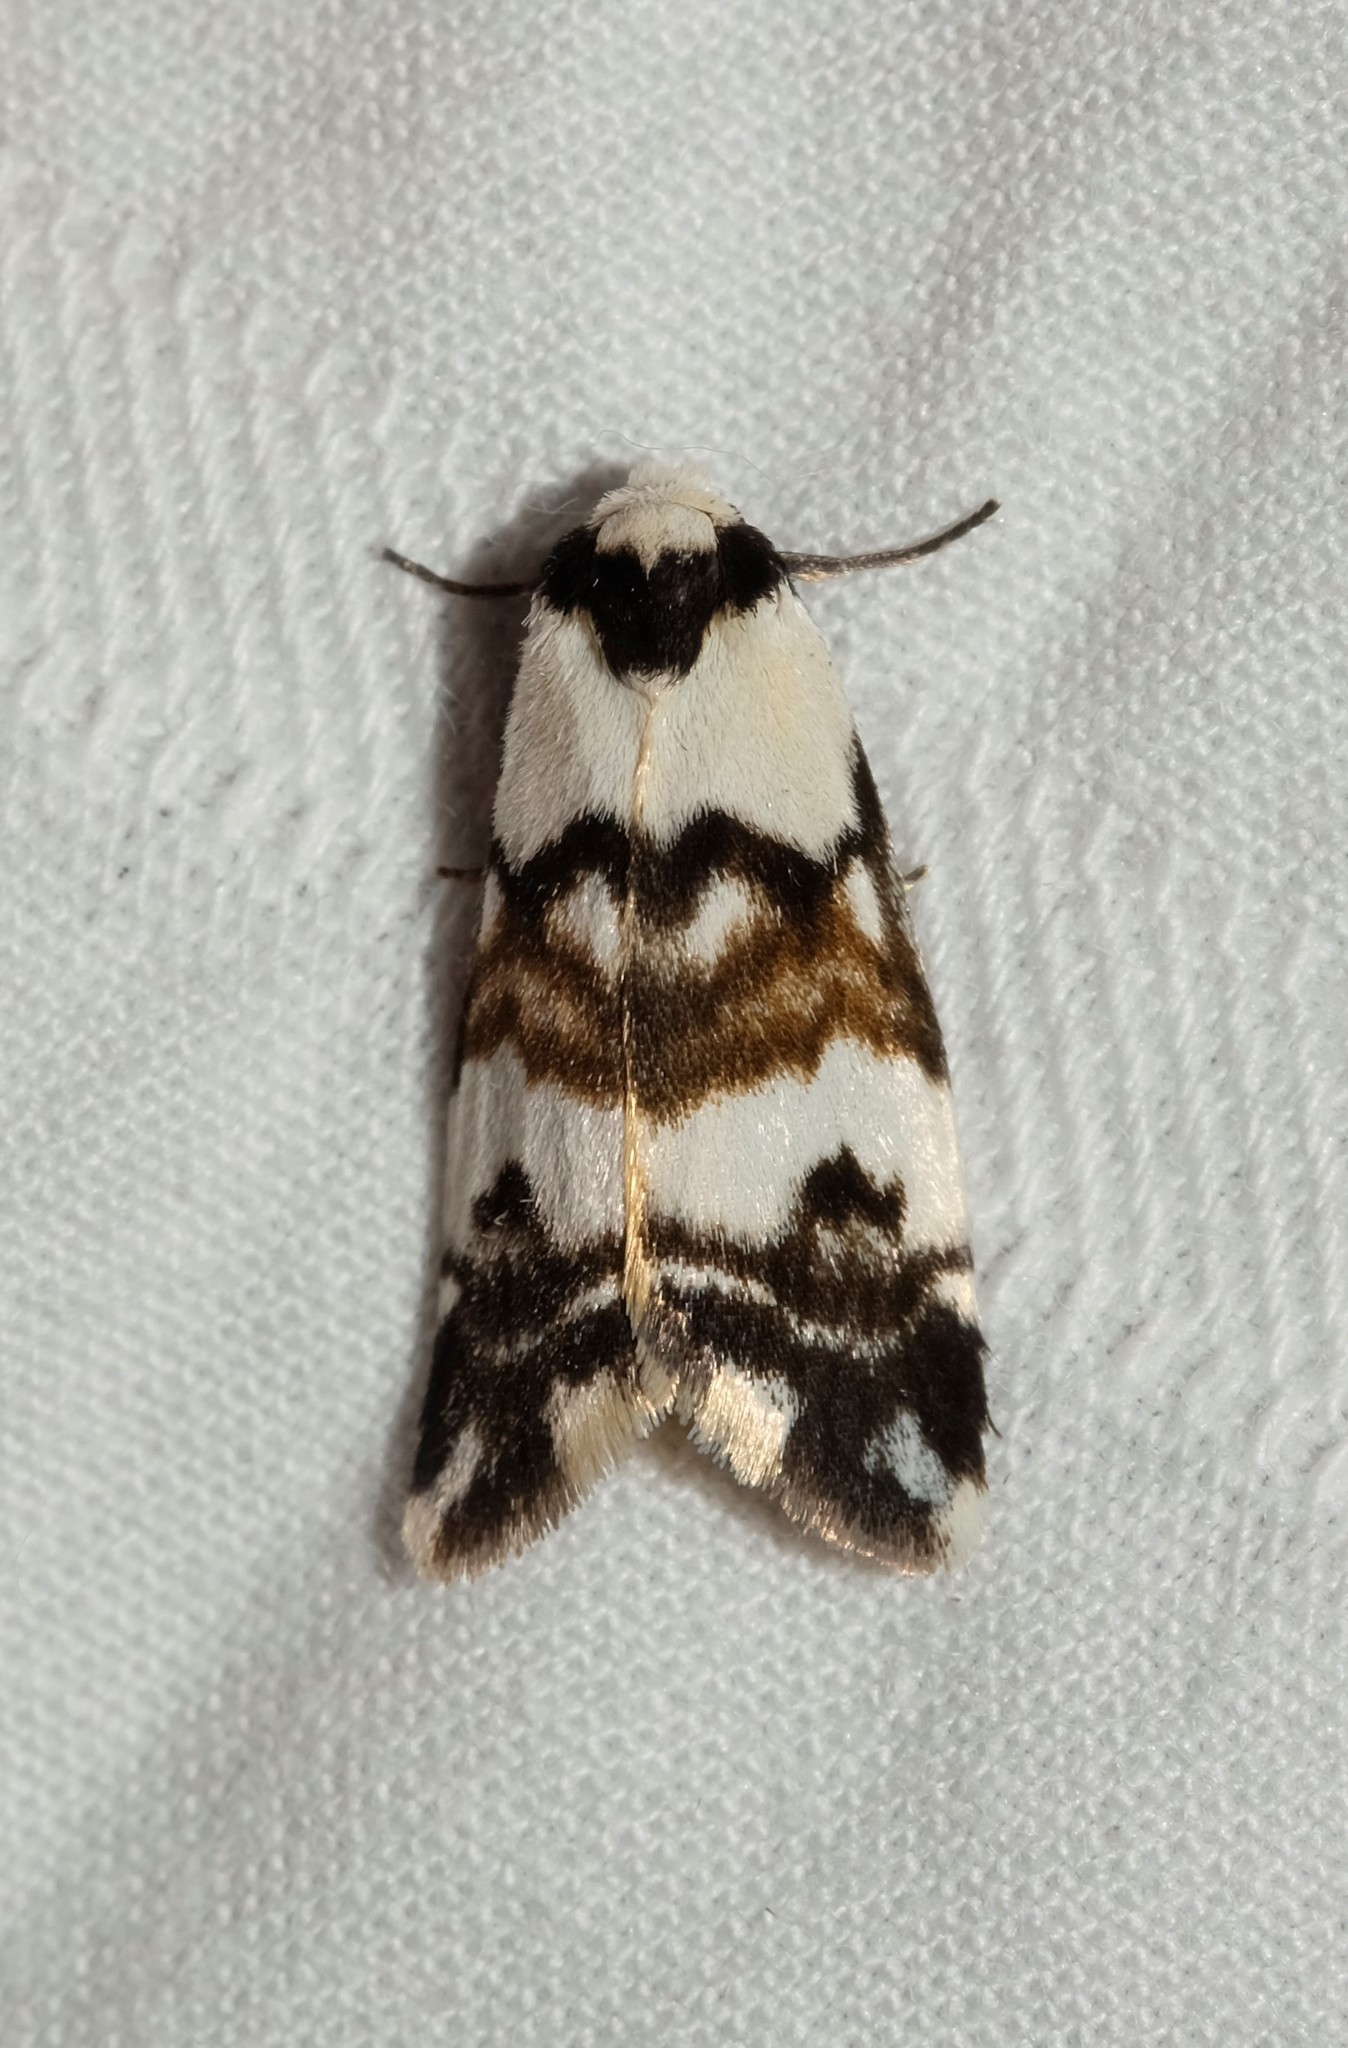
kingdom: Animalia
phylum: Arthropoda
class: Insecta
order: Lepidoptera
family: Erebidae
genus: Thallarcha
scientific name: Thallarcha albicollis
